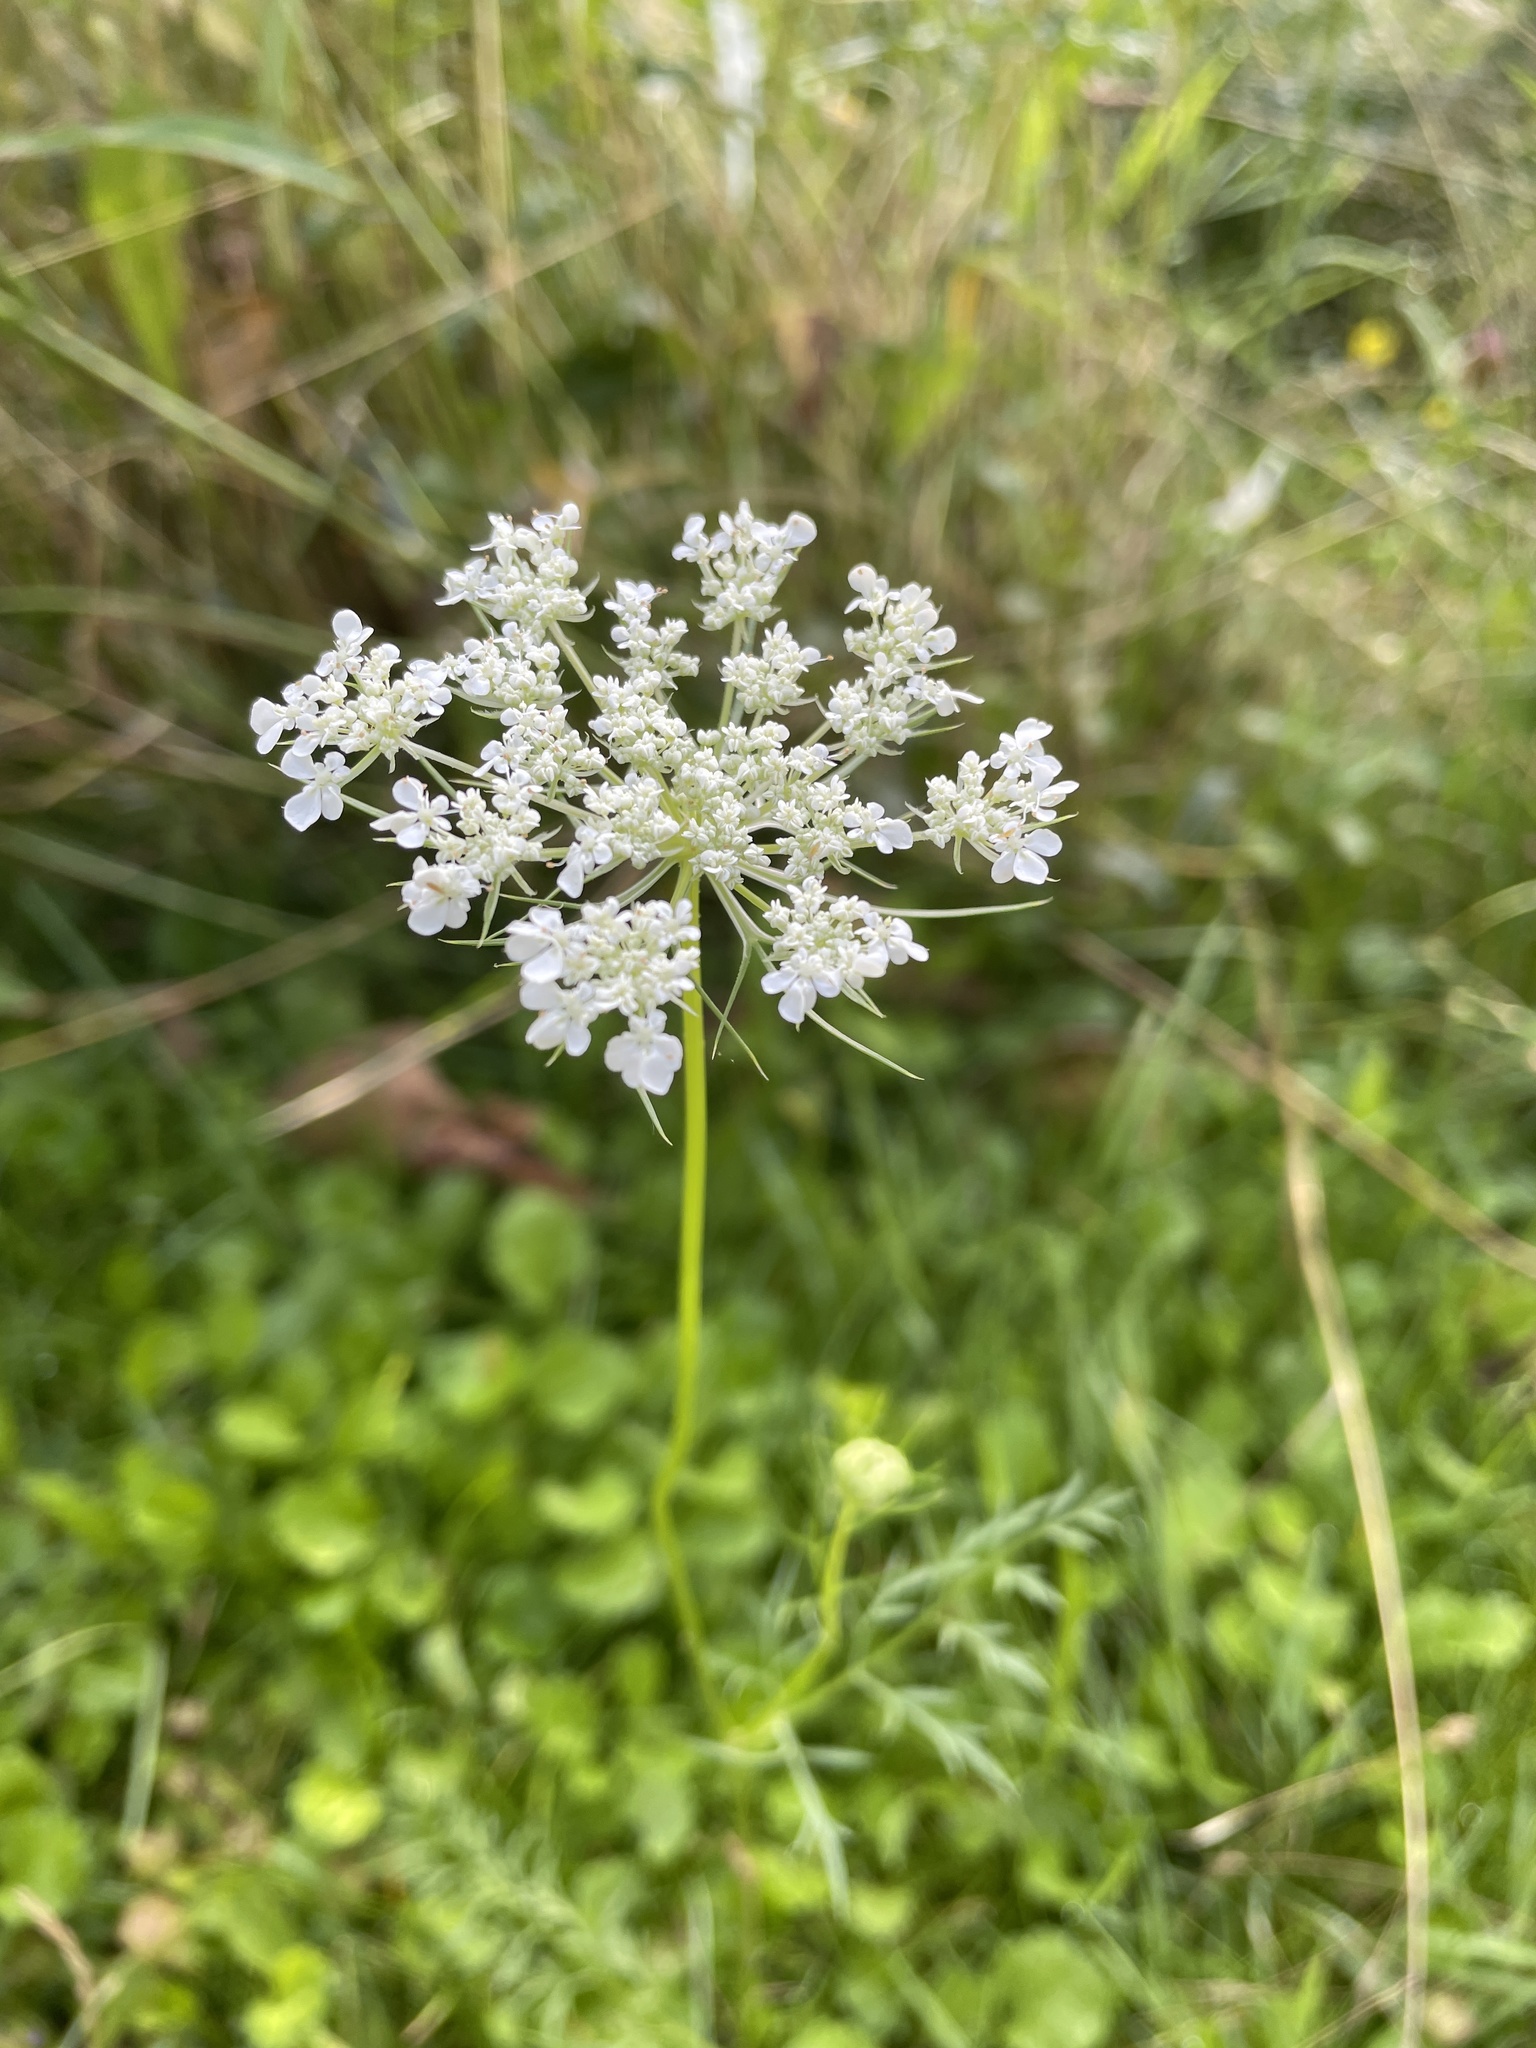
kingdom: Plantae
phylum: Tracheophyta
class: Magnoliopsida
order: Apiales
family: Apiaceae
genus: Daucus
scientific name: Daucus carota
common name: Wild carrot
